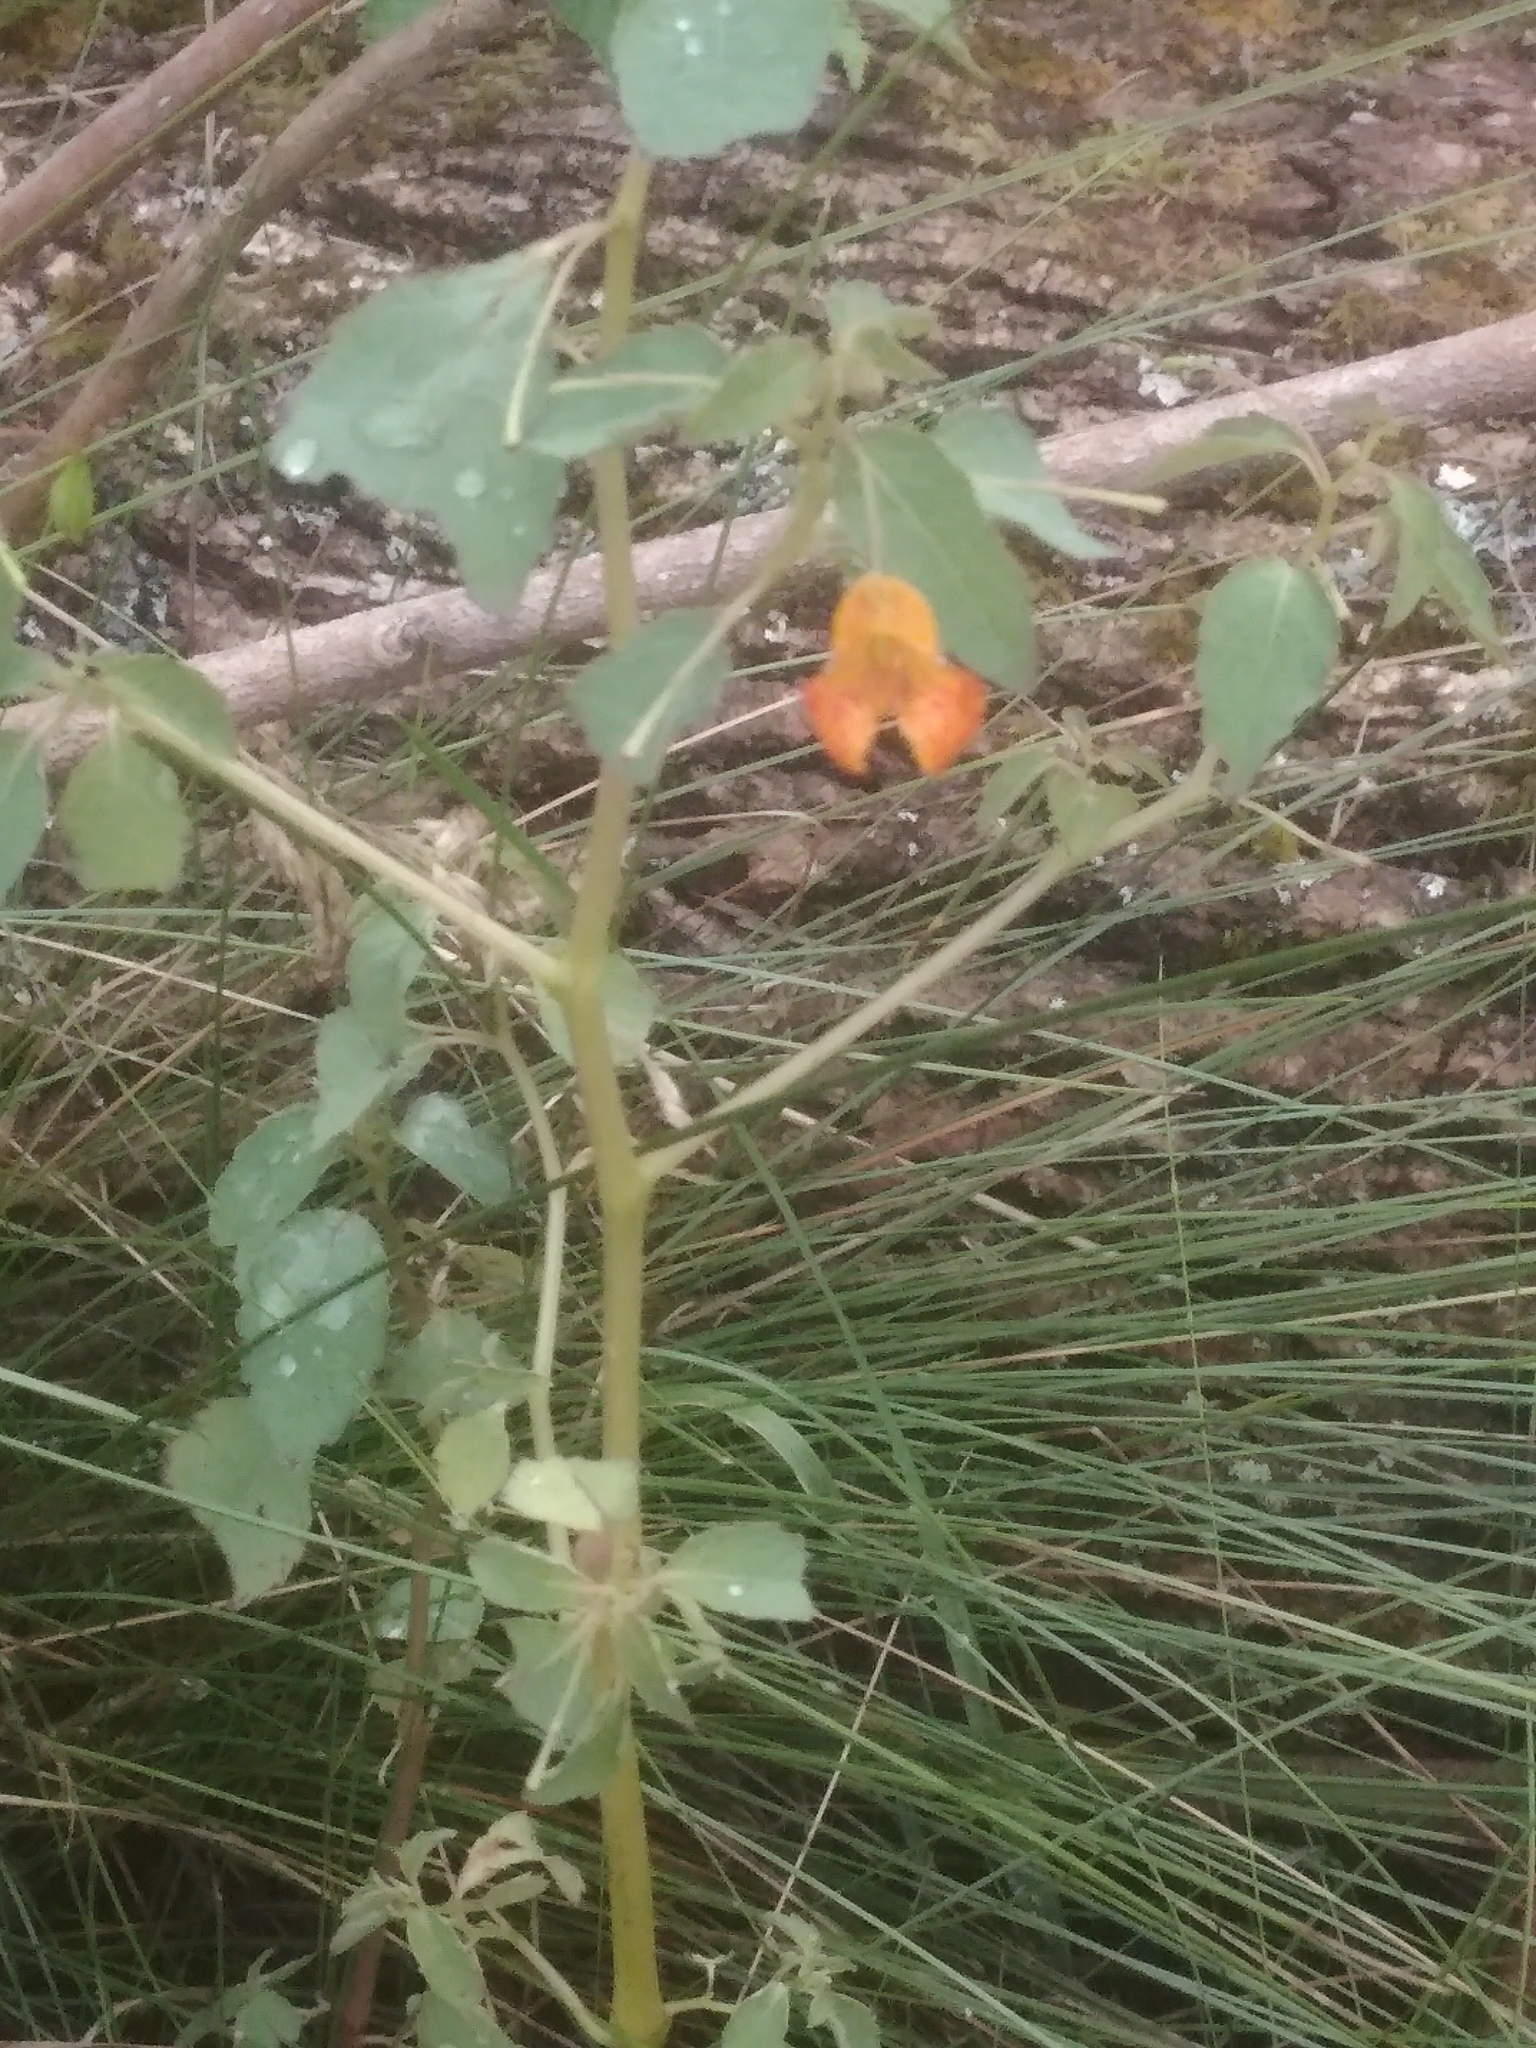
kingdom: Plantae
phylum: Tracheophyta
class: Magnoliopsida
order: Ericales
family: Balsaminaceae
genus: Impatiens
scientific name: Impatiens capensis
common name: Orange balsam
